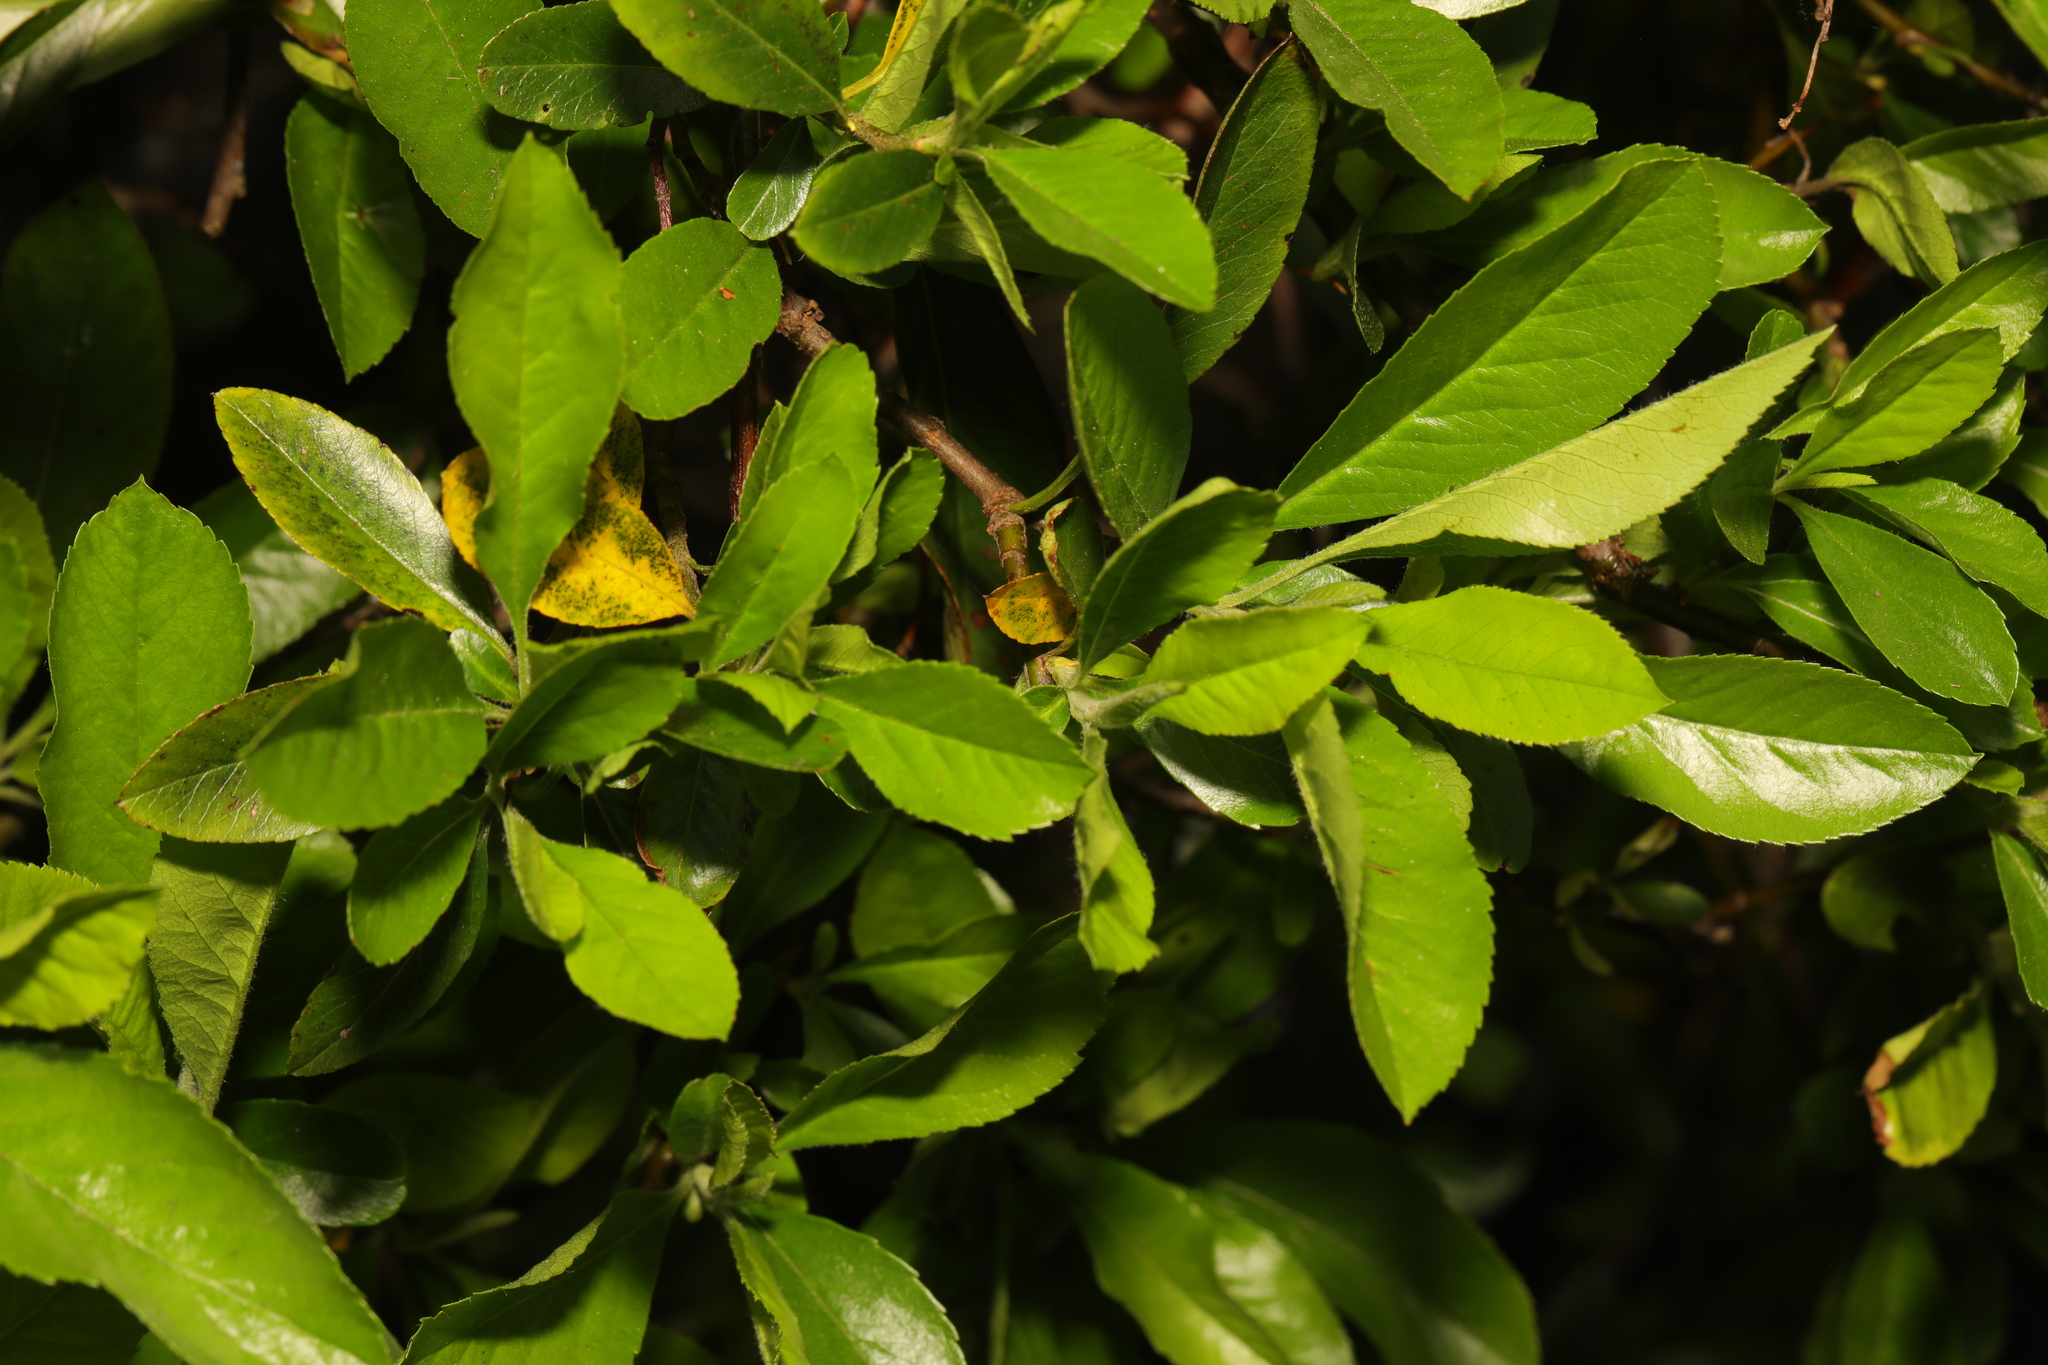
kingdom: Plantae
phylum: Tracheophyta
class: Magnoliopsida
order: Rosales
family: Rosaceae
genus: Pyracantha
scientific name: Pyracantha coccinea
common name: Firethorn
